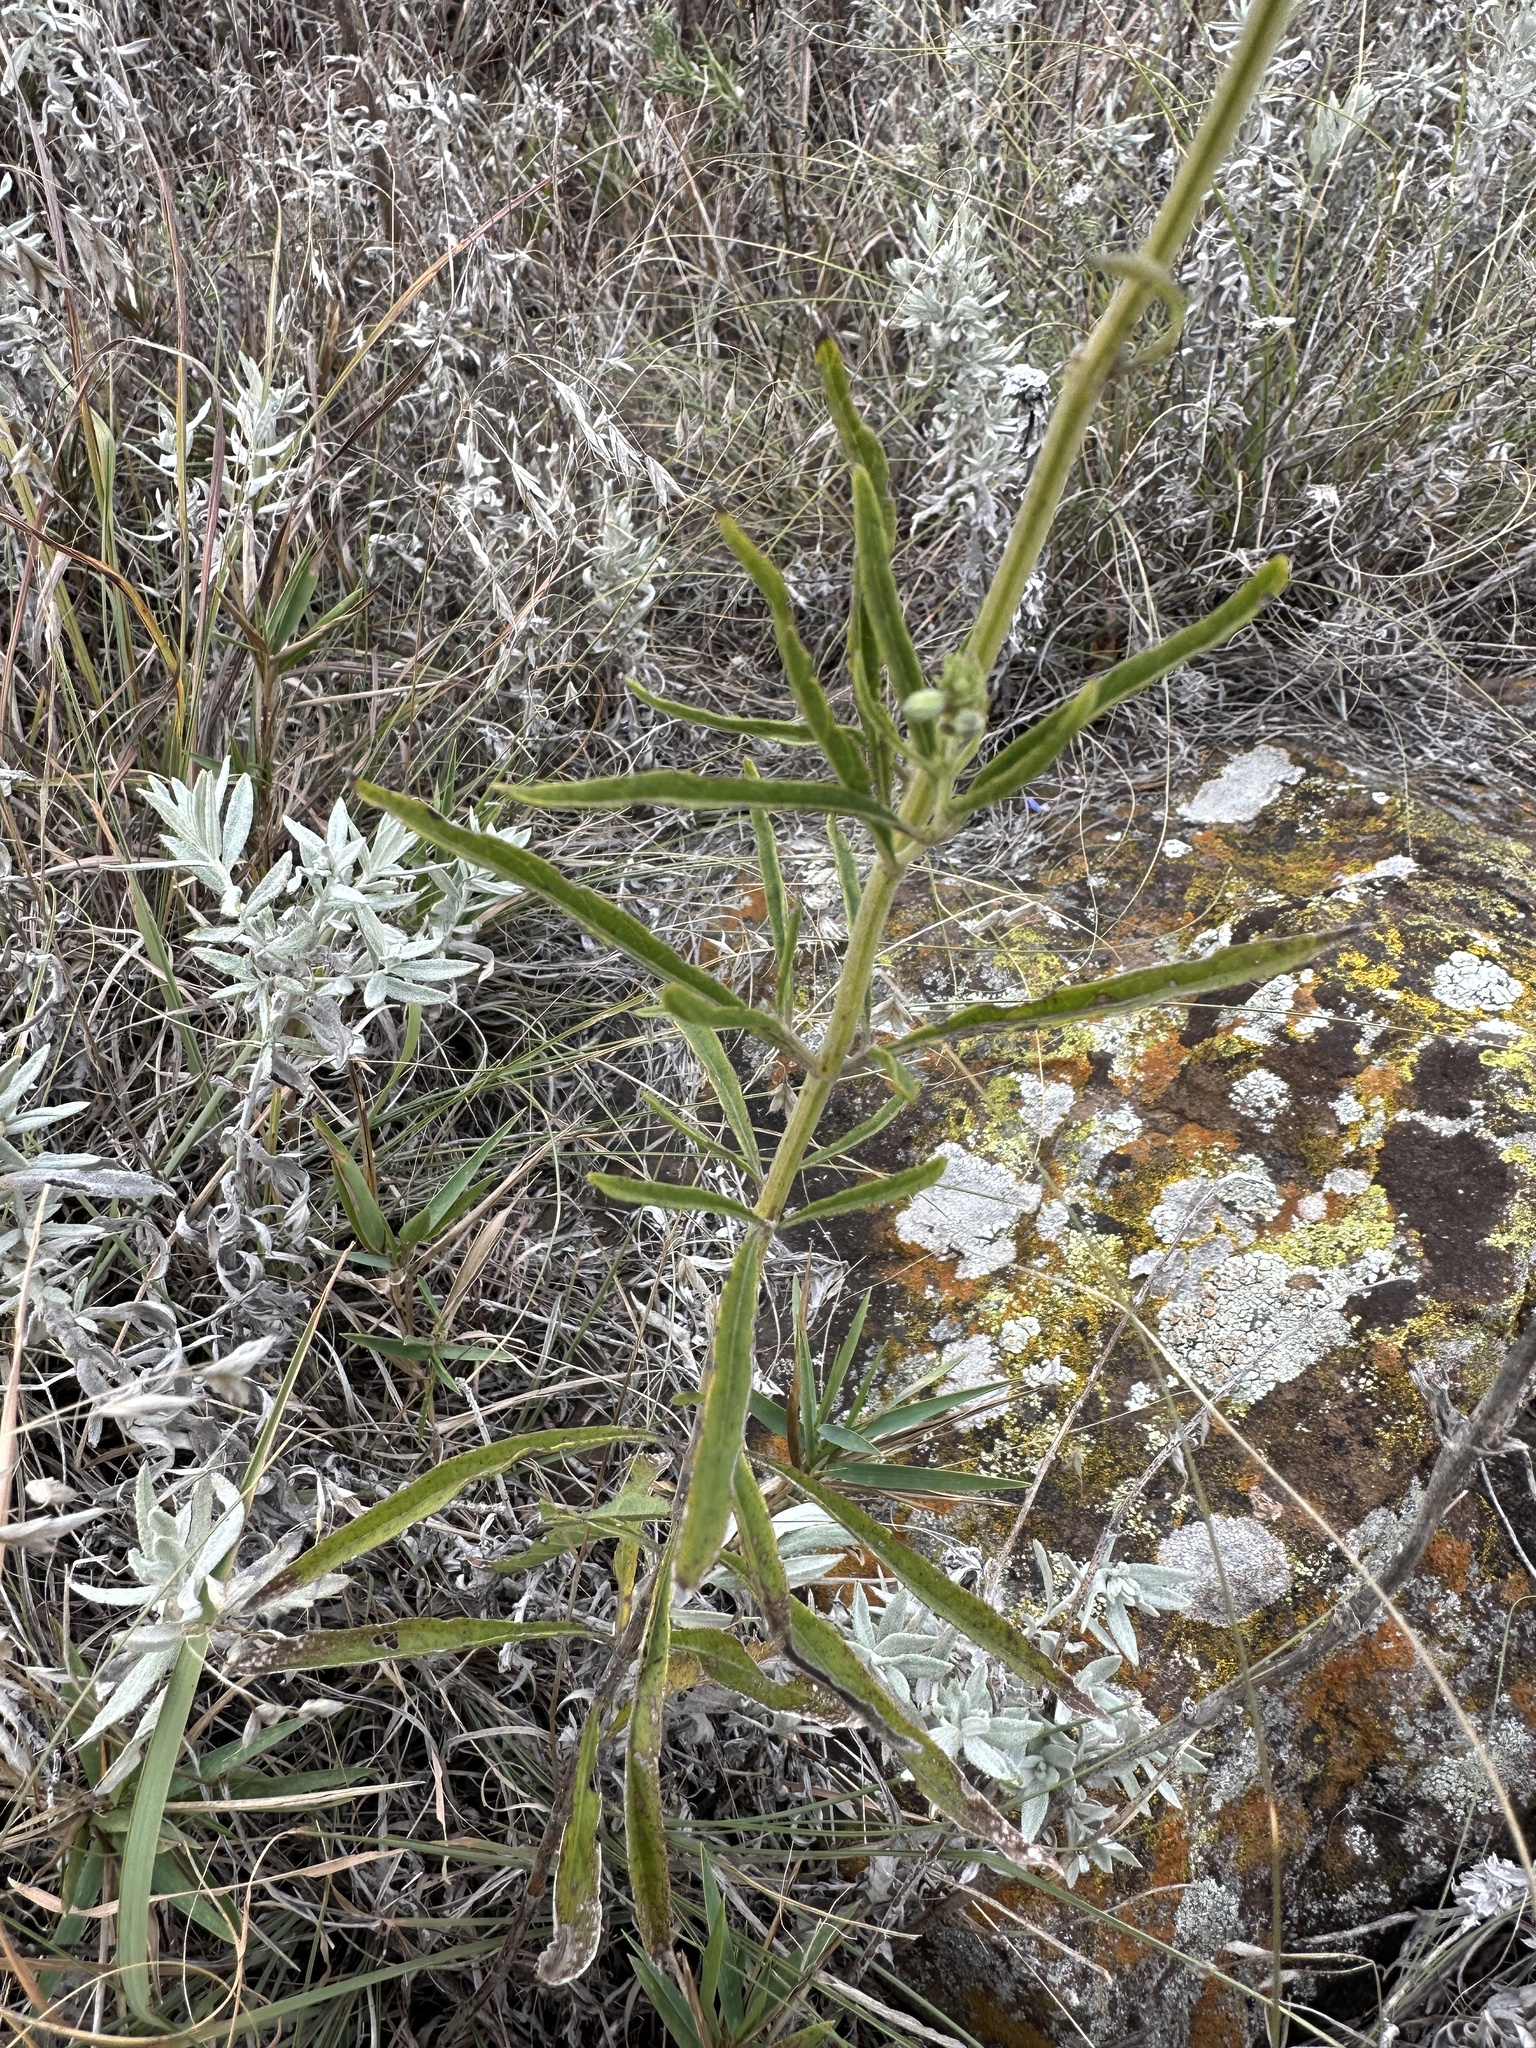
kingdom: Plantae
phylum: Tracheophyta
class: Magnoliopsida
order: Lamiales
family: Lamiaceae
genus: Salvia
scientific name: Salvia azurea
